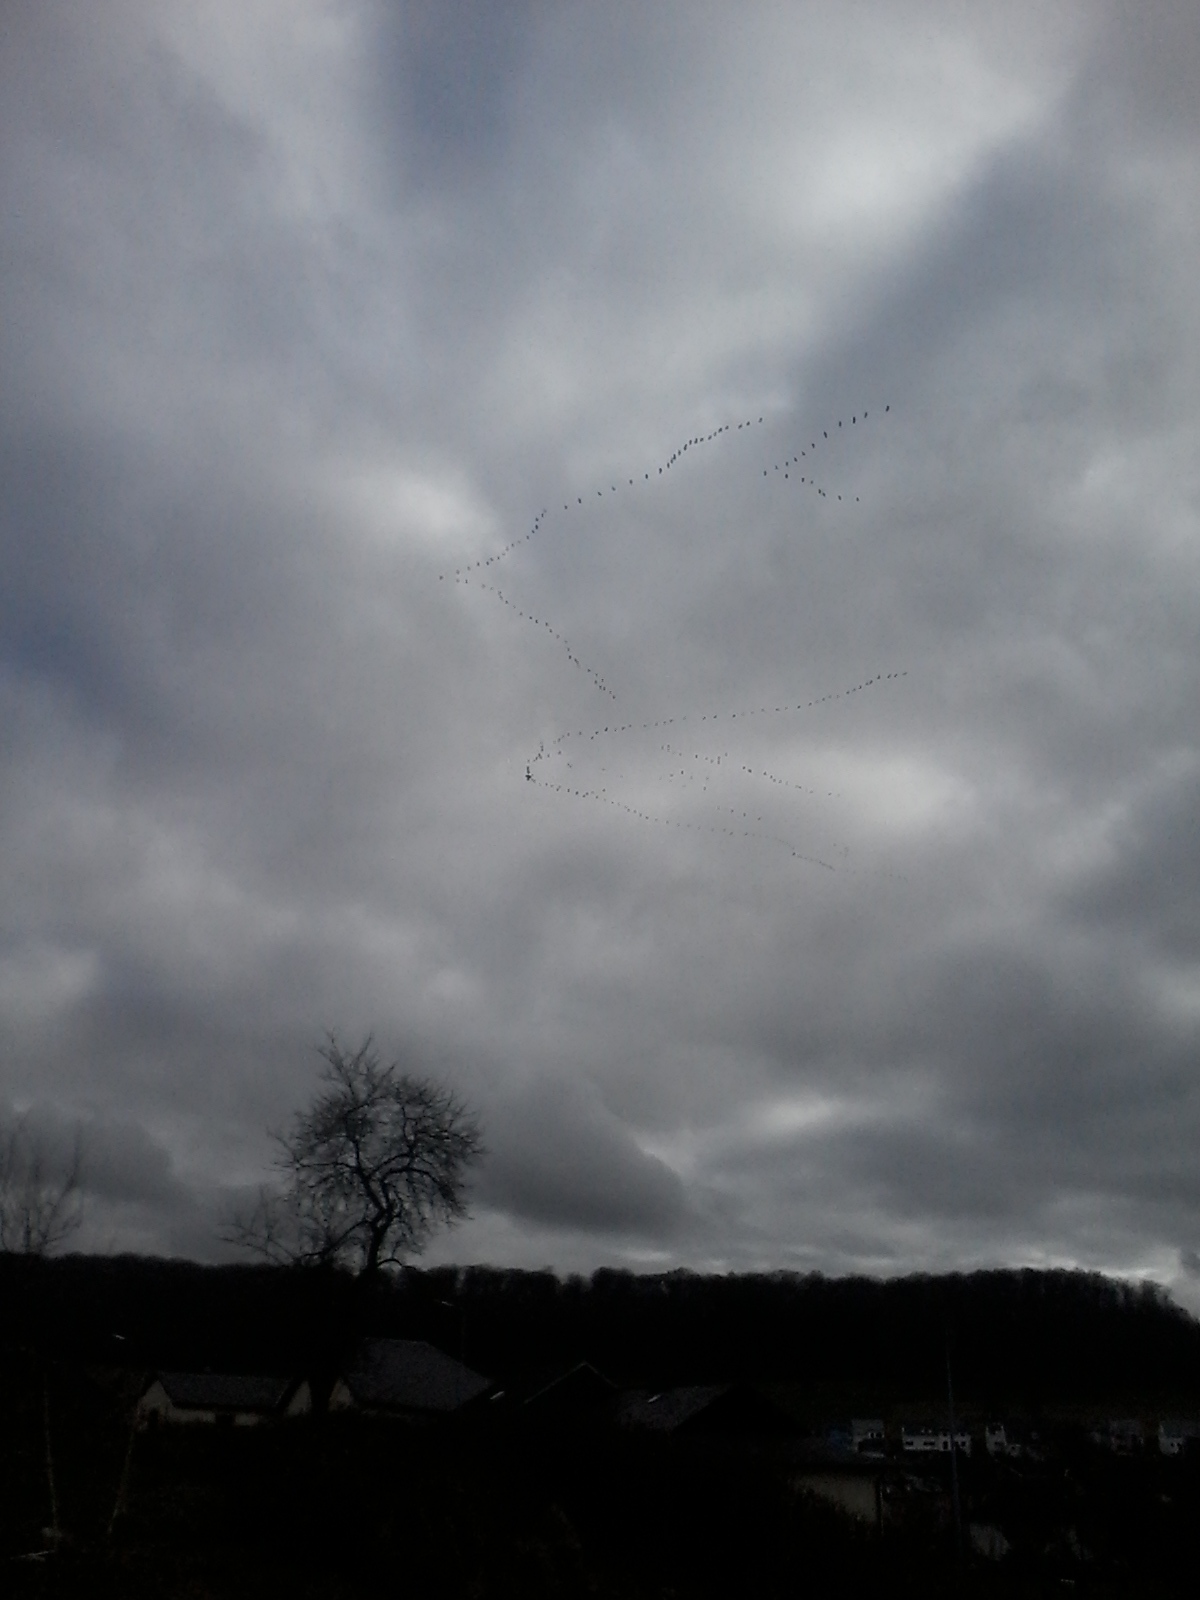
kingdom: Animalia
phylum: Chordata
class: Aves
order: Gruiformes
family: Gruidae
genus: Grus
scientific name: Grus grus
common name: Common crane
